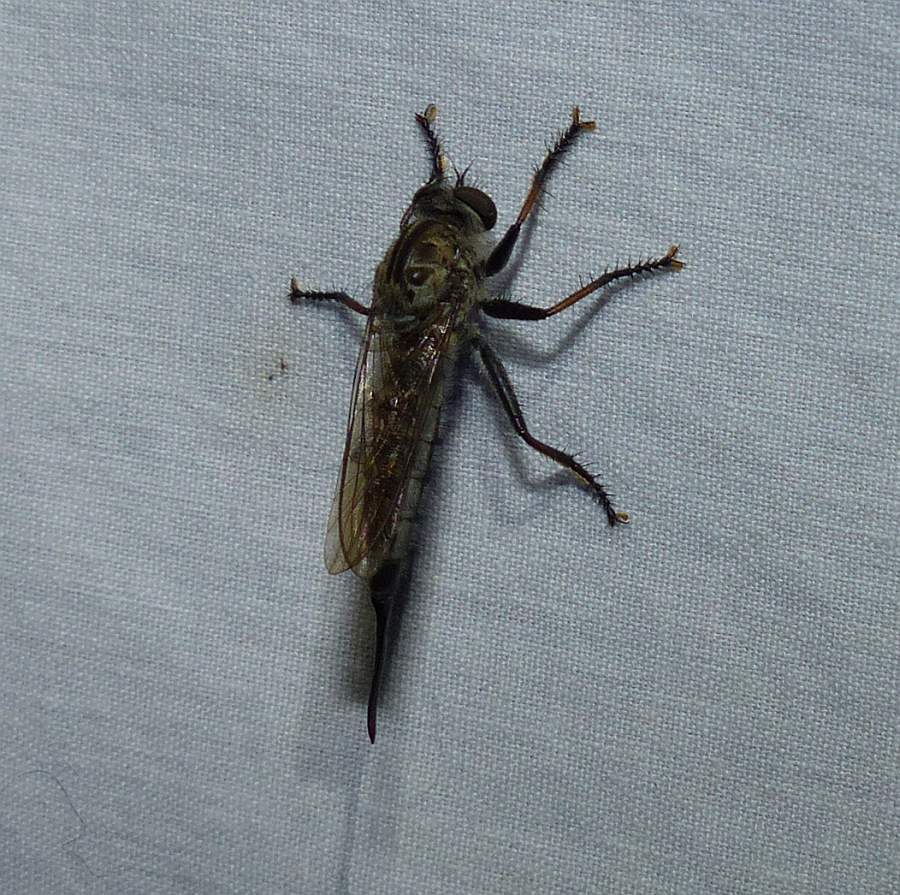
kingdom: Animalia
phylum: Arthropoda
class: Insecta
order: Diptera
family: Asilidae
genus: Efferia
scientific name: Efferia aestuans
